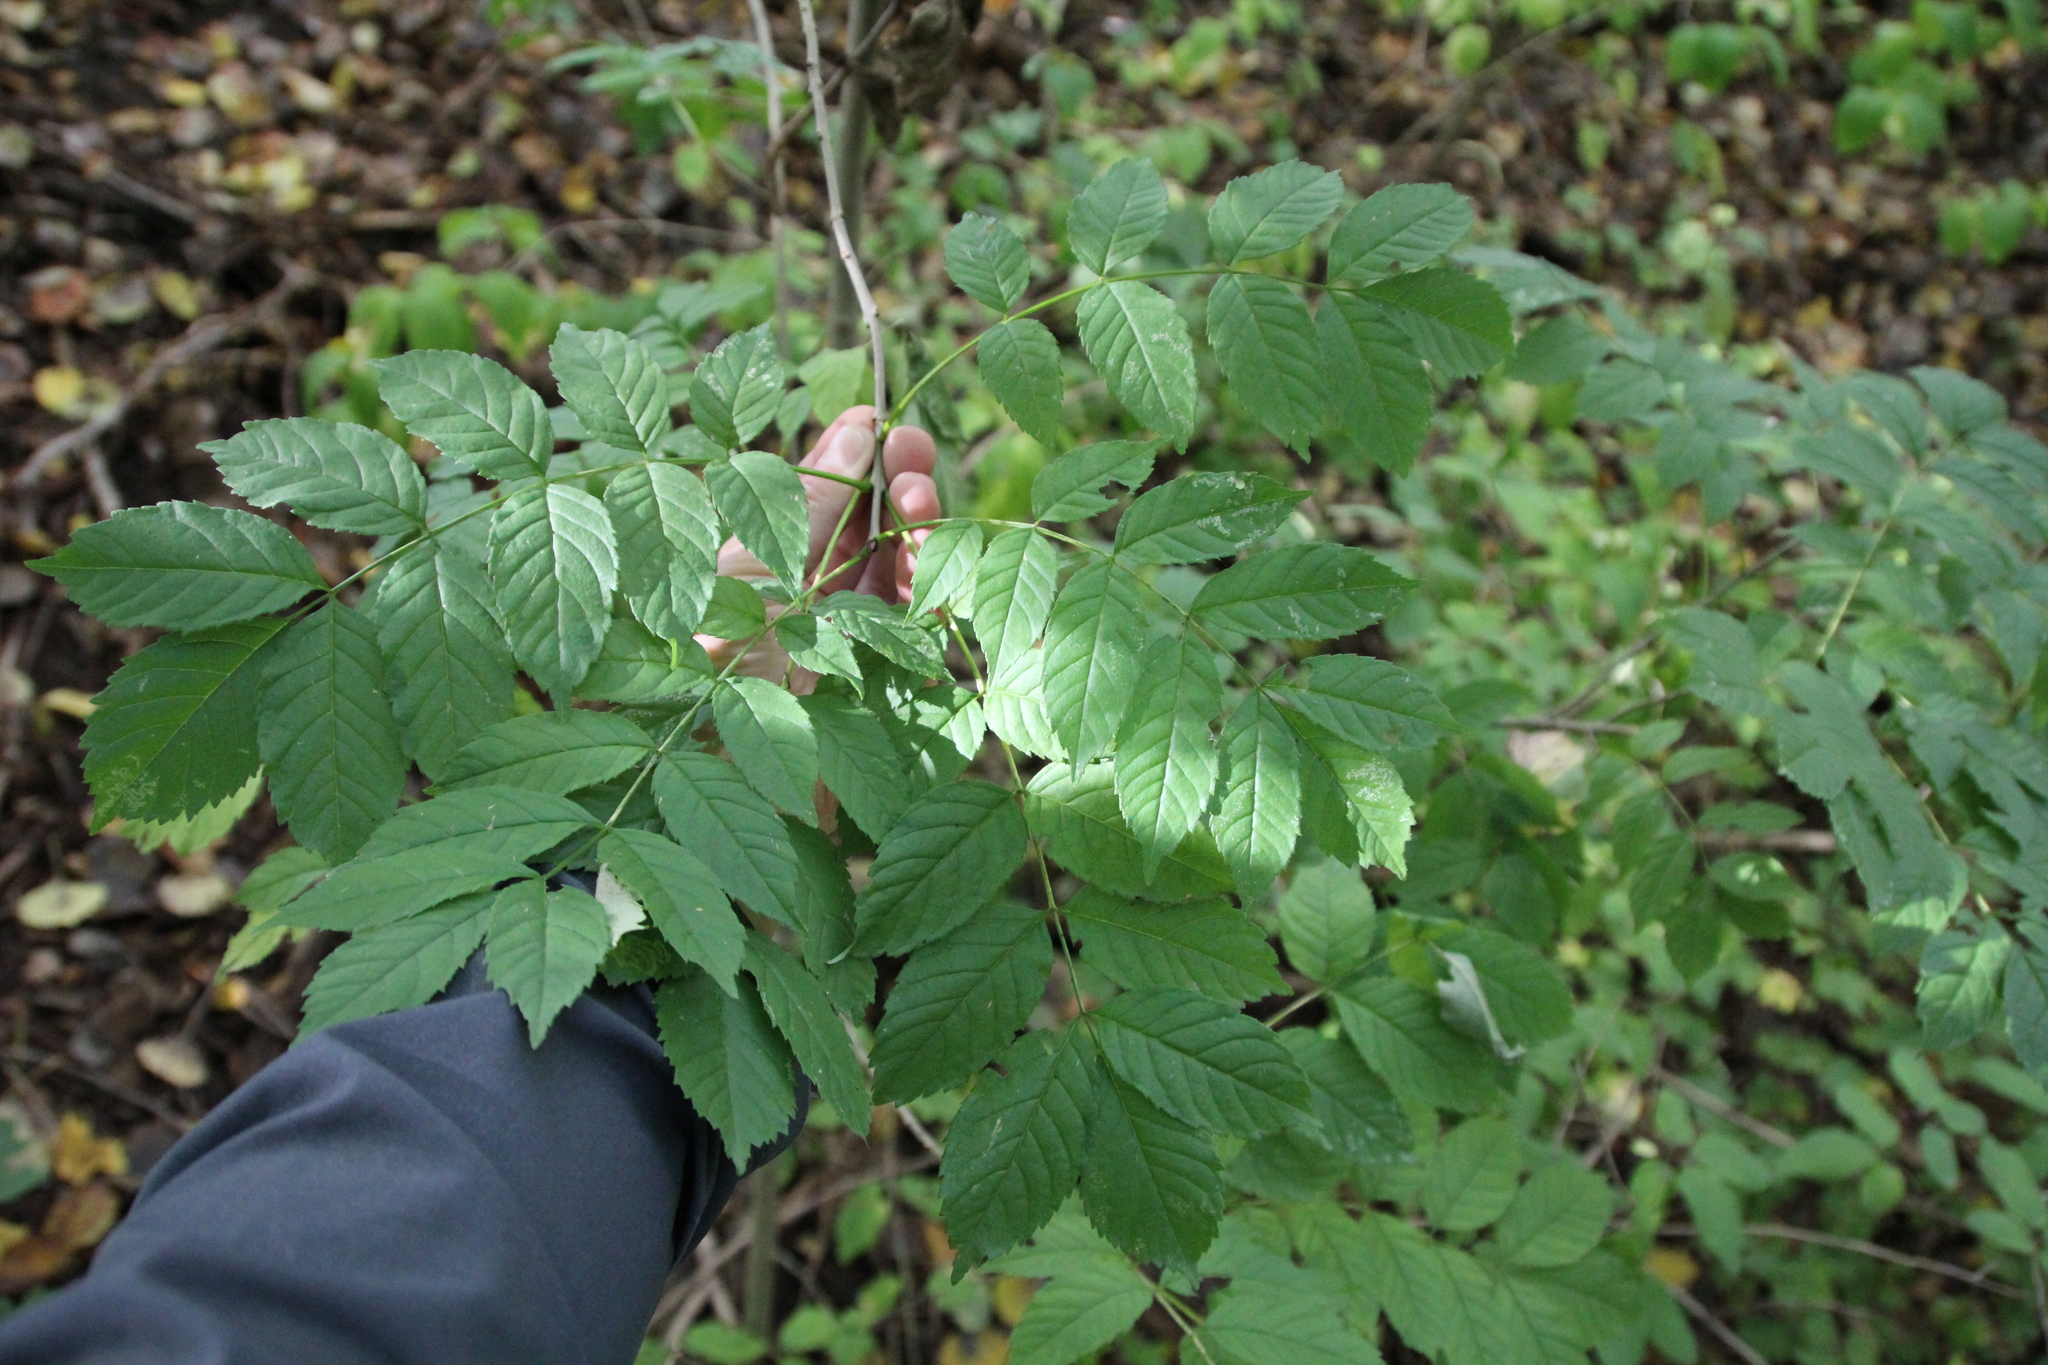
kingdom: Plantae
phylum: Tracheophyta
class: Magnoliopsida
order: Lamiales
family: Oleaceae
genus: Fraxinus
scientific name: Fraxinus excelsior
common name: European ash
